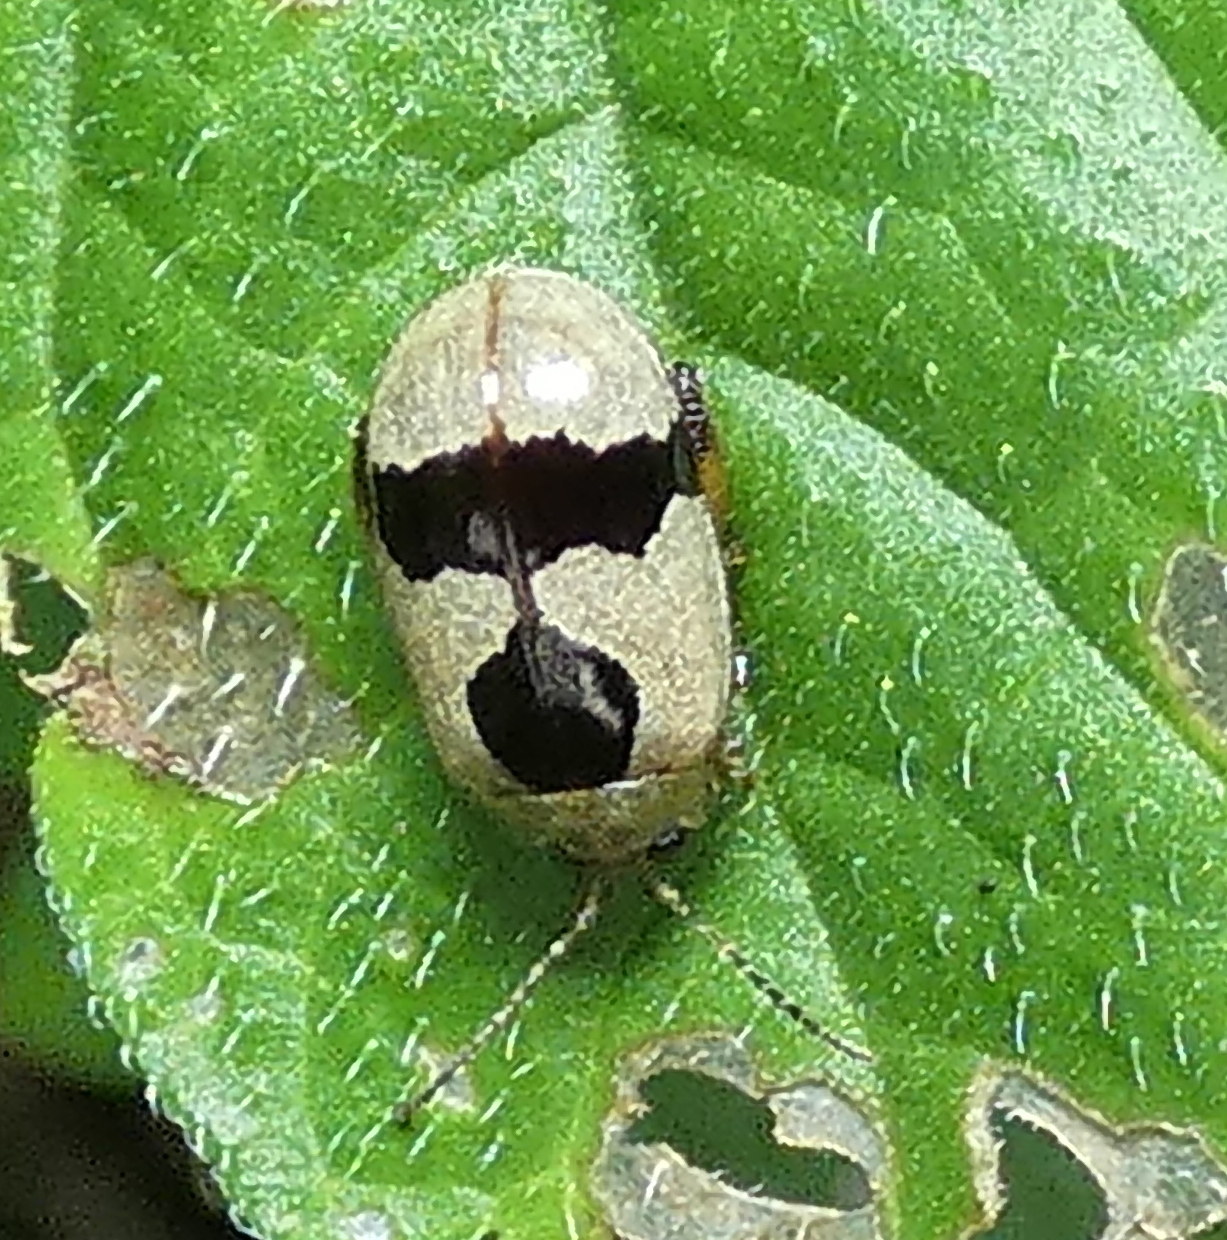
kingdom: Animalia
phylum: Arthropoda
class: Insecta
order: Coleoptera
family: Chrysomelidae
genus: Alagoasa
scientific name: Alagoasa
